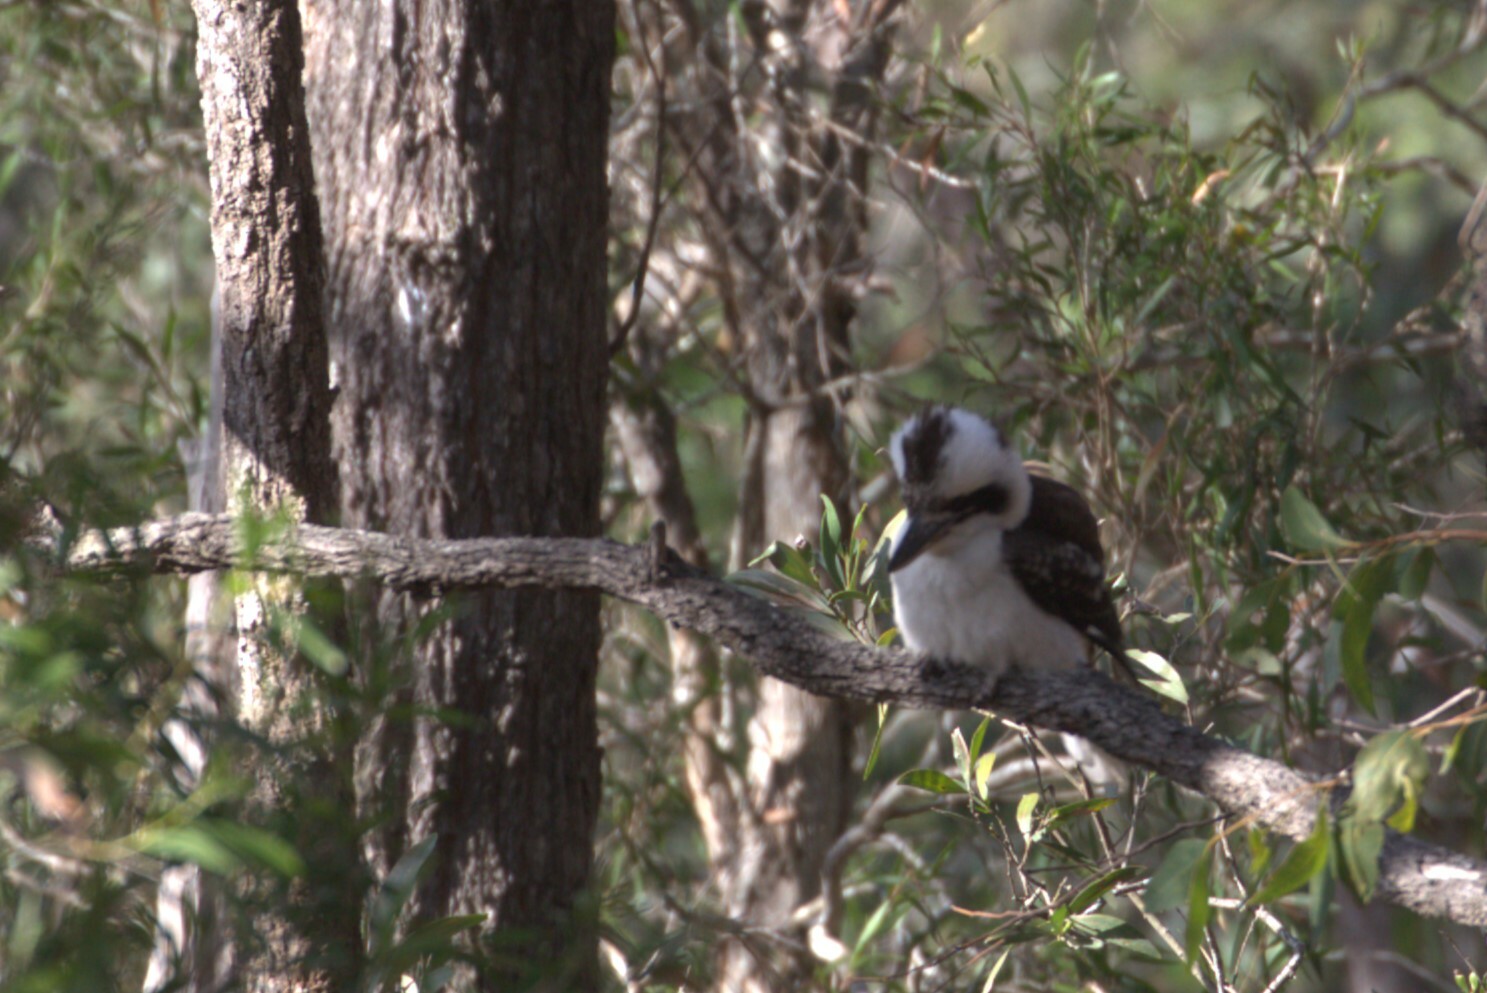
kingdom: Animalia
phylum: Chordata
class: Aves
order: Coraciiformes
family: Alcedinidae
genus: Dacelo
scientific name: Dacelo novaeguineae
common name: Laughing kookaburra
